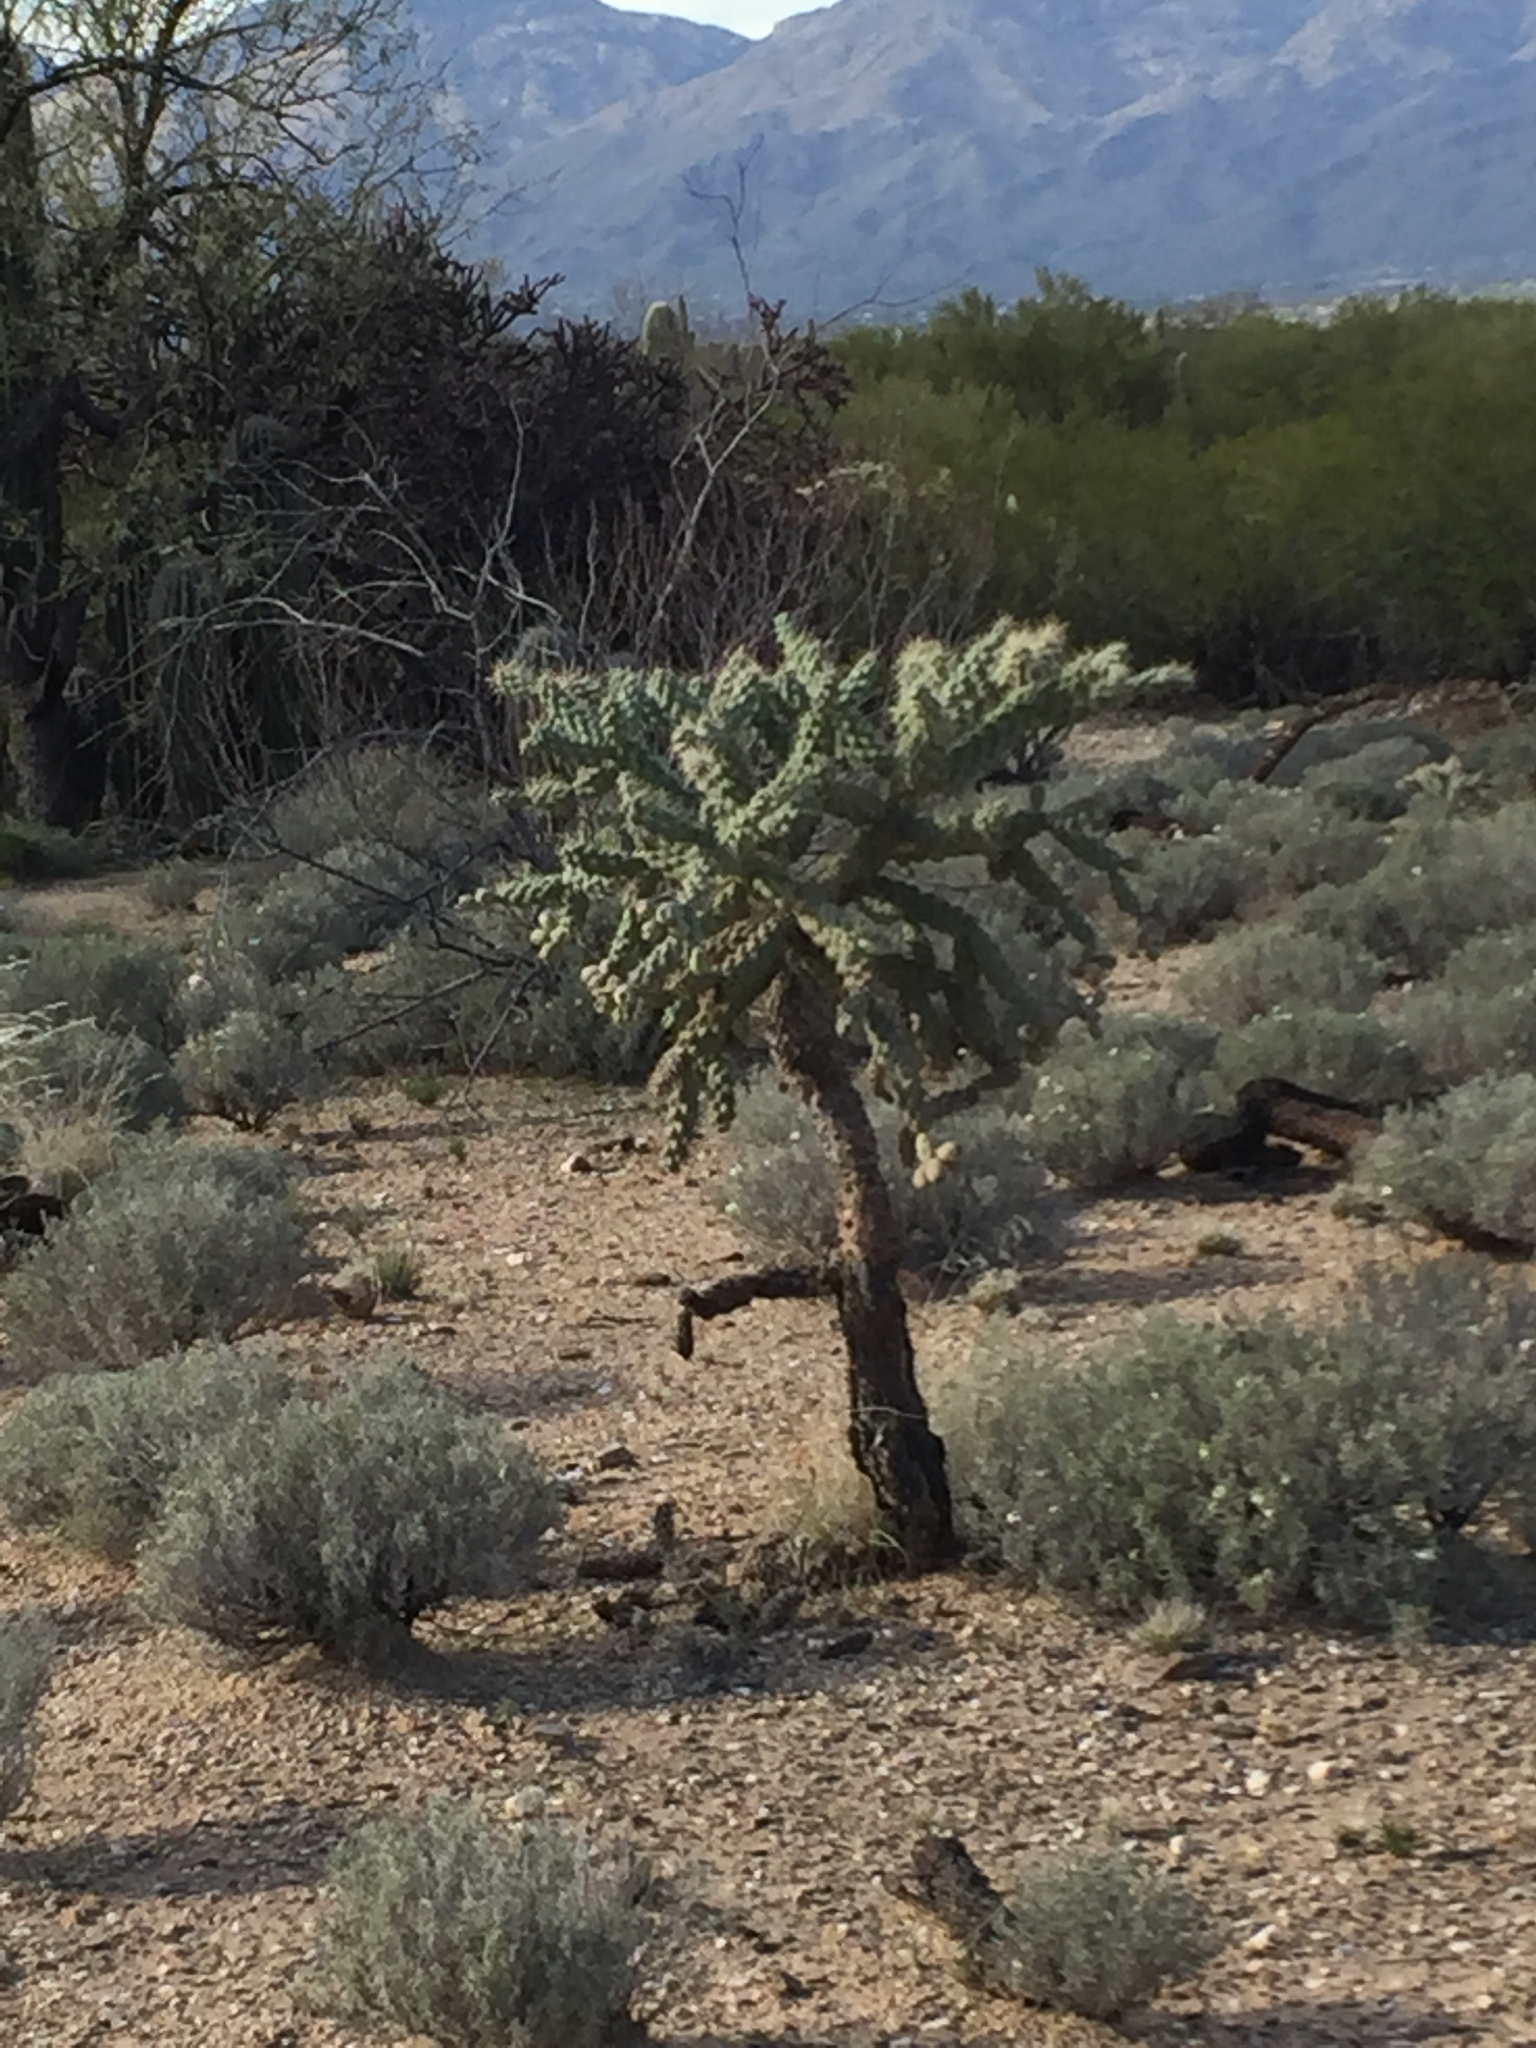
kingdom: Plantae
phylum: Tracheophyta
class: Magnoliopsida
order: Caryophyllales
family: Cactaceae
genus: Cylindropuntia
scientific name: Cylindropuntia fulgida
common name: Jumping cholla
